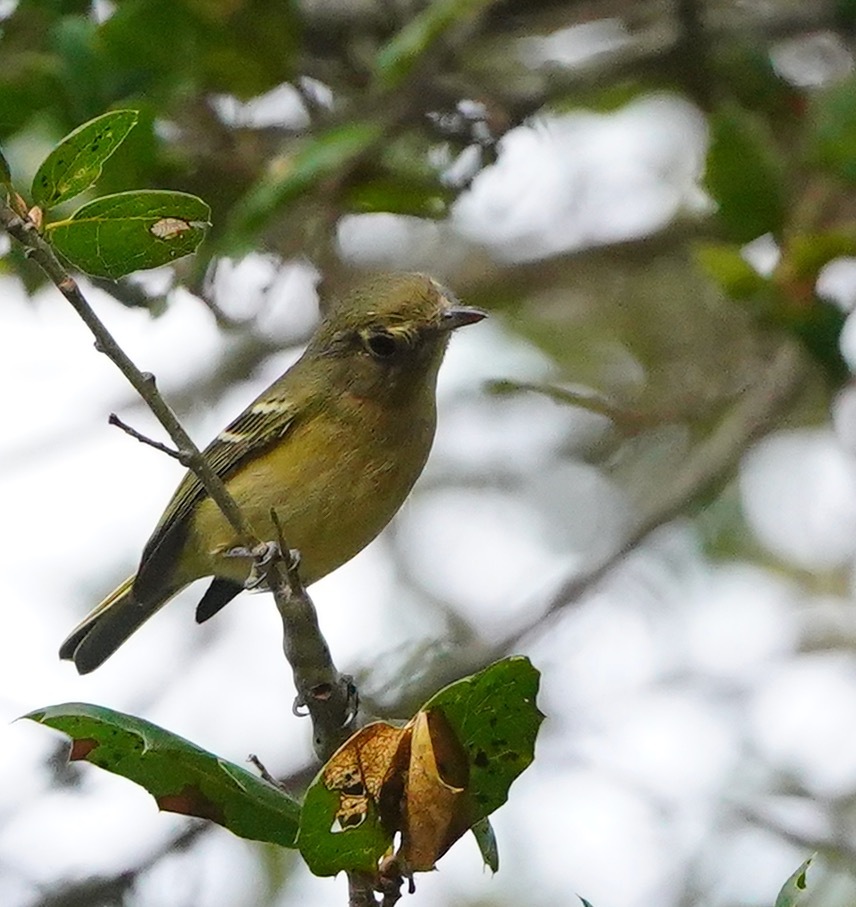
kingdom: Animalia
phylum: Chordata
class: Aves
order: Passeriformes
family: Vireonidae
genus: Vireo
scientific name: Vireo huttoni
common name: Hutton's vireo
